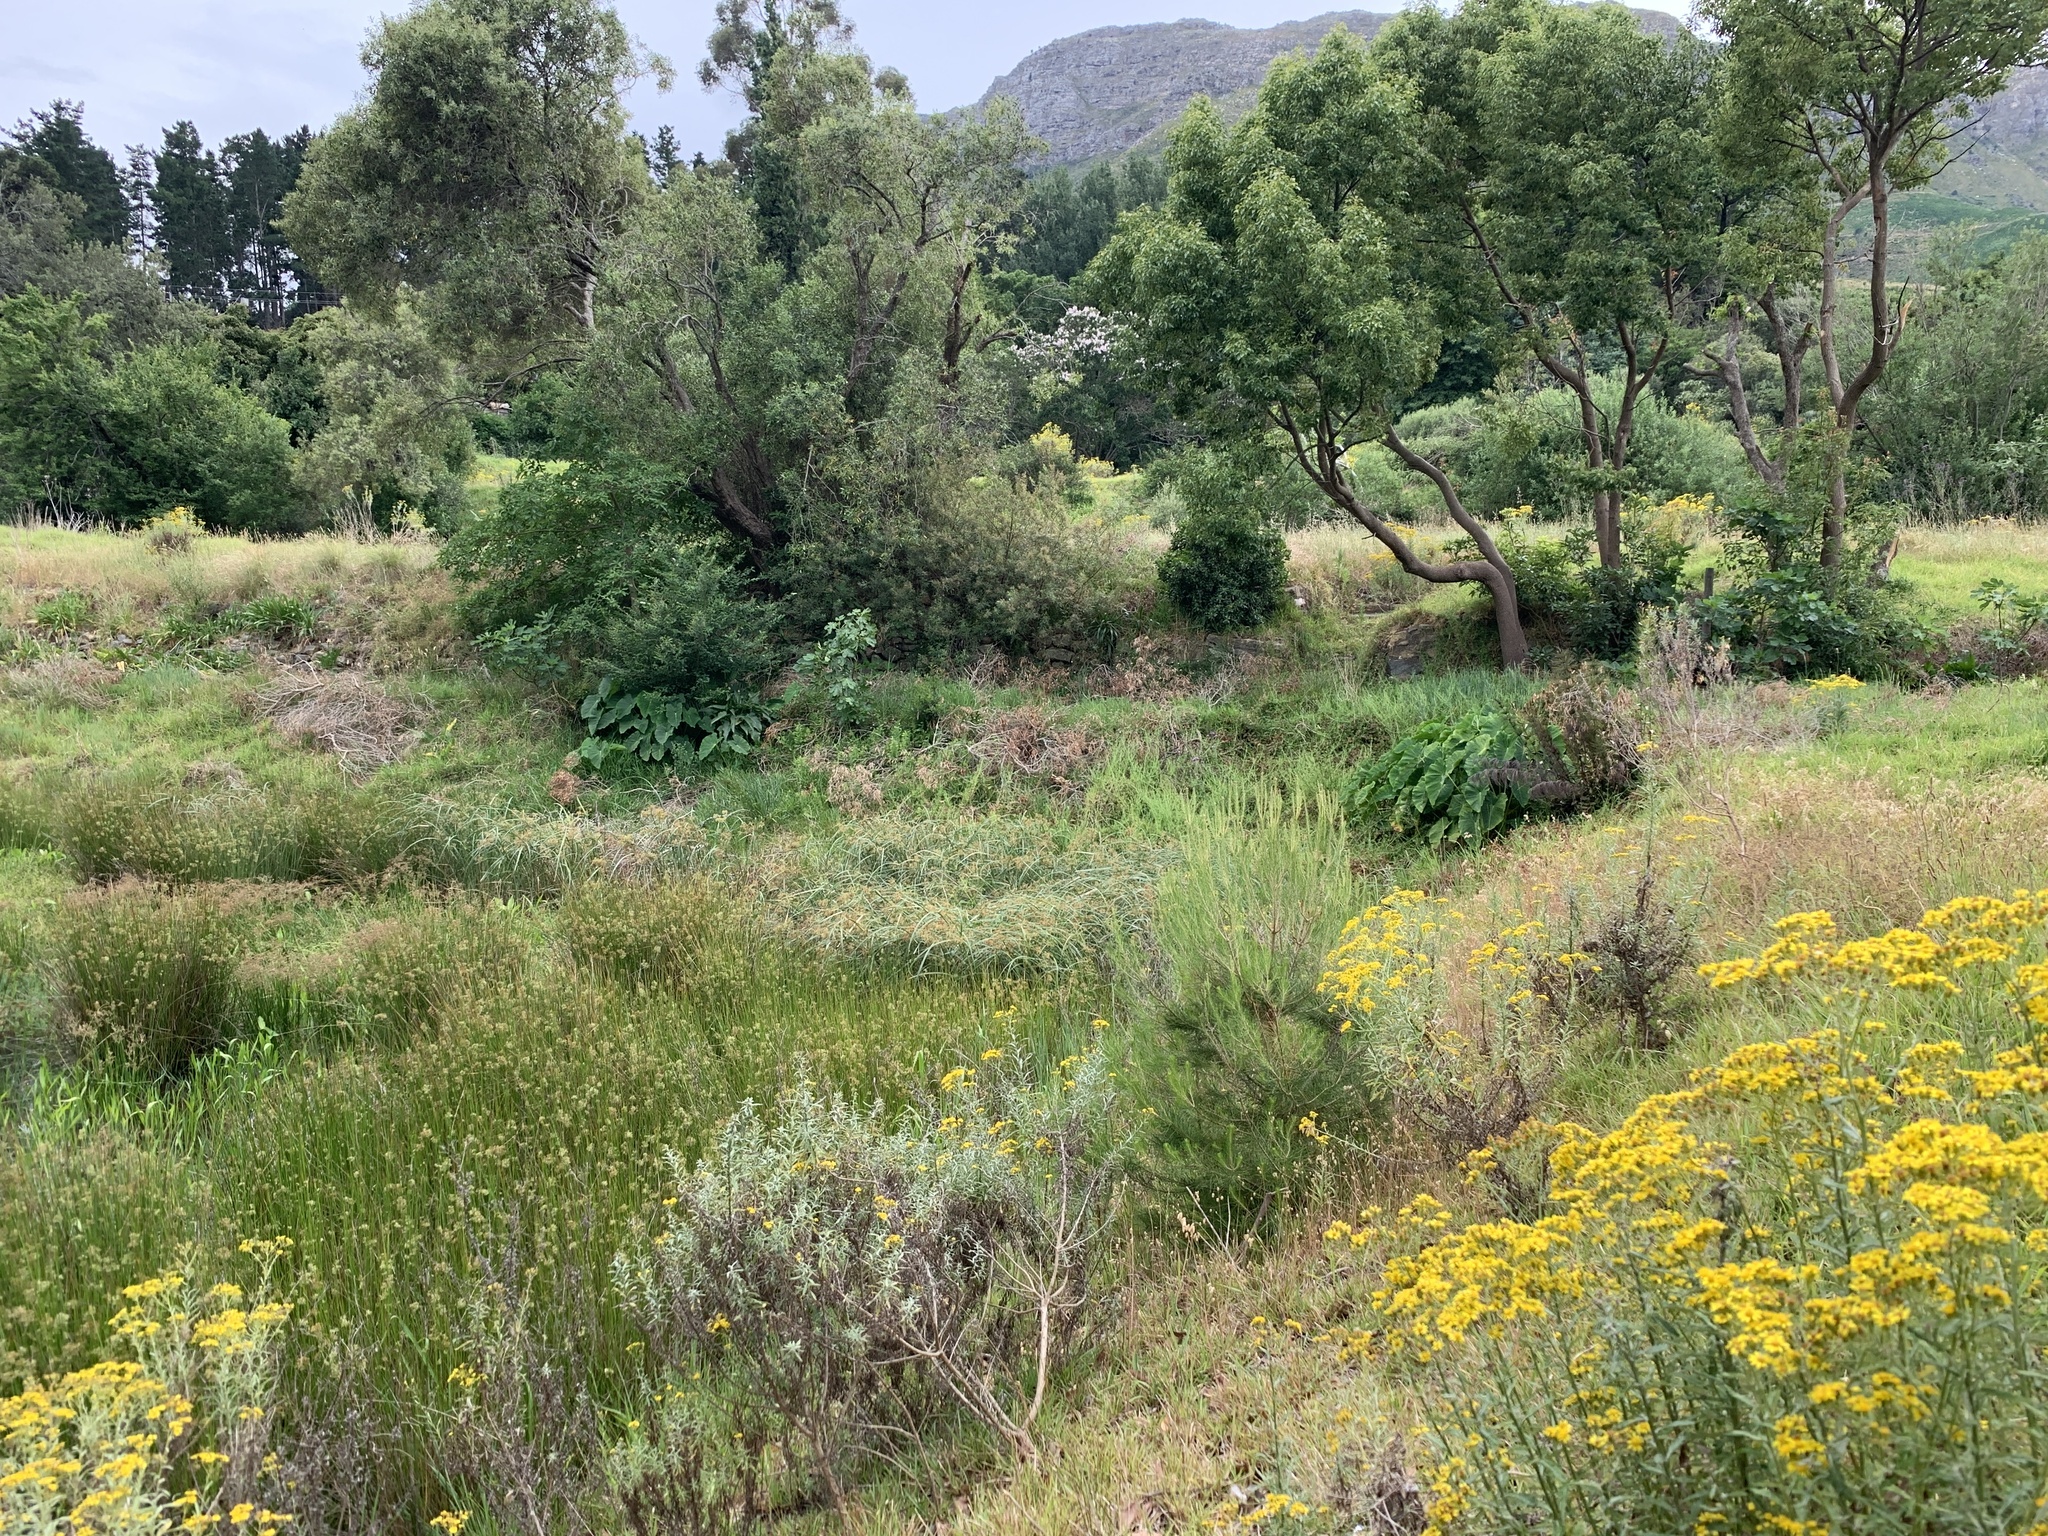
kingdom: Plantae
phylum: Tracheophyta
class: Liliopsida
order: Alismatales
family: Araceae
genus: Colocasia
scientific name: Colocasia esculenta
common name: Taro
